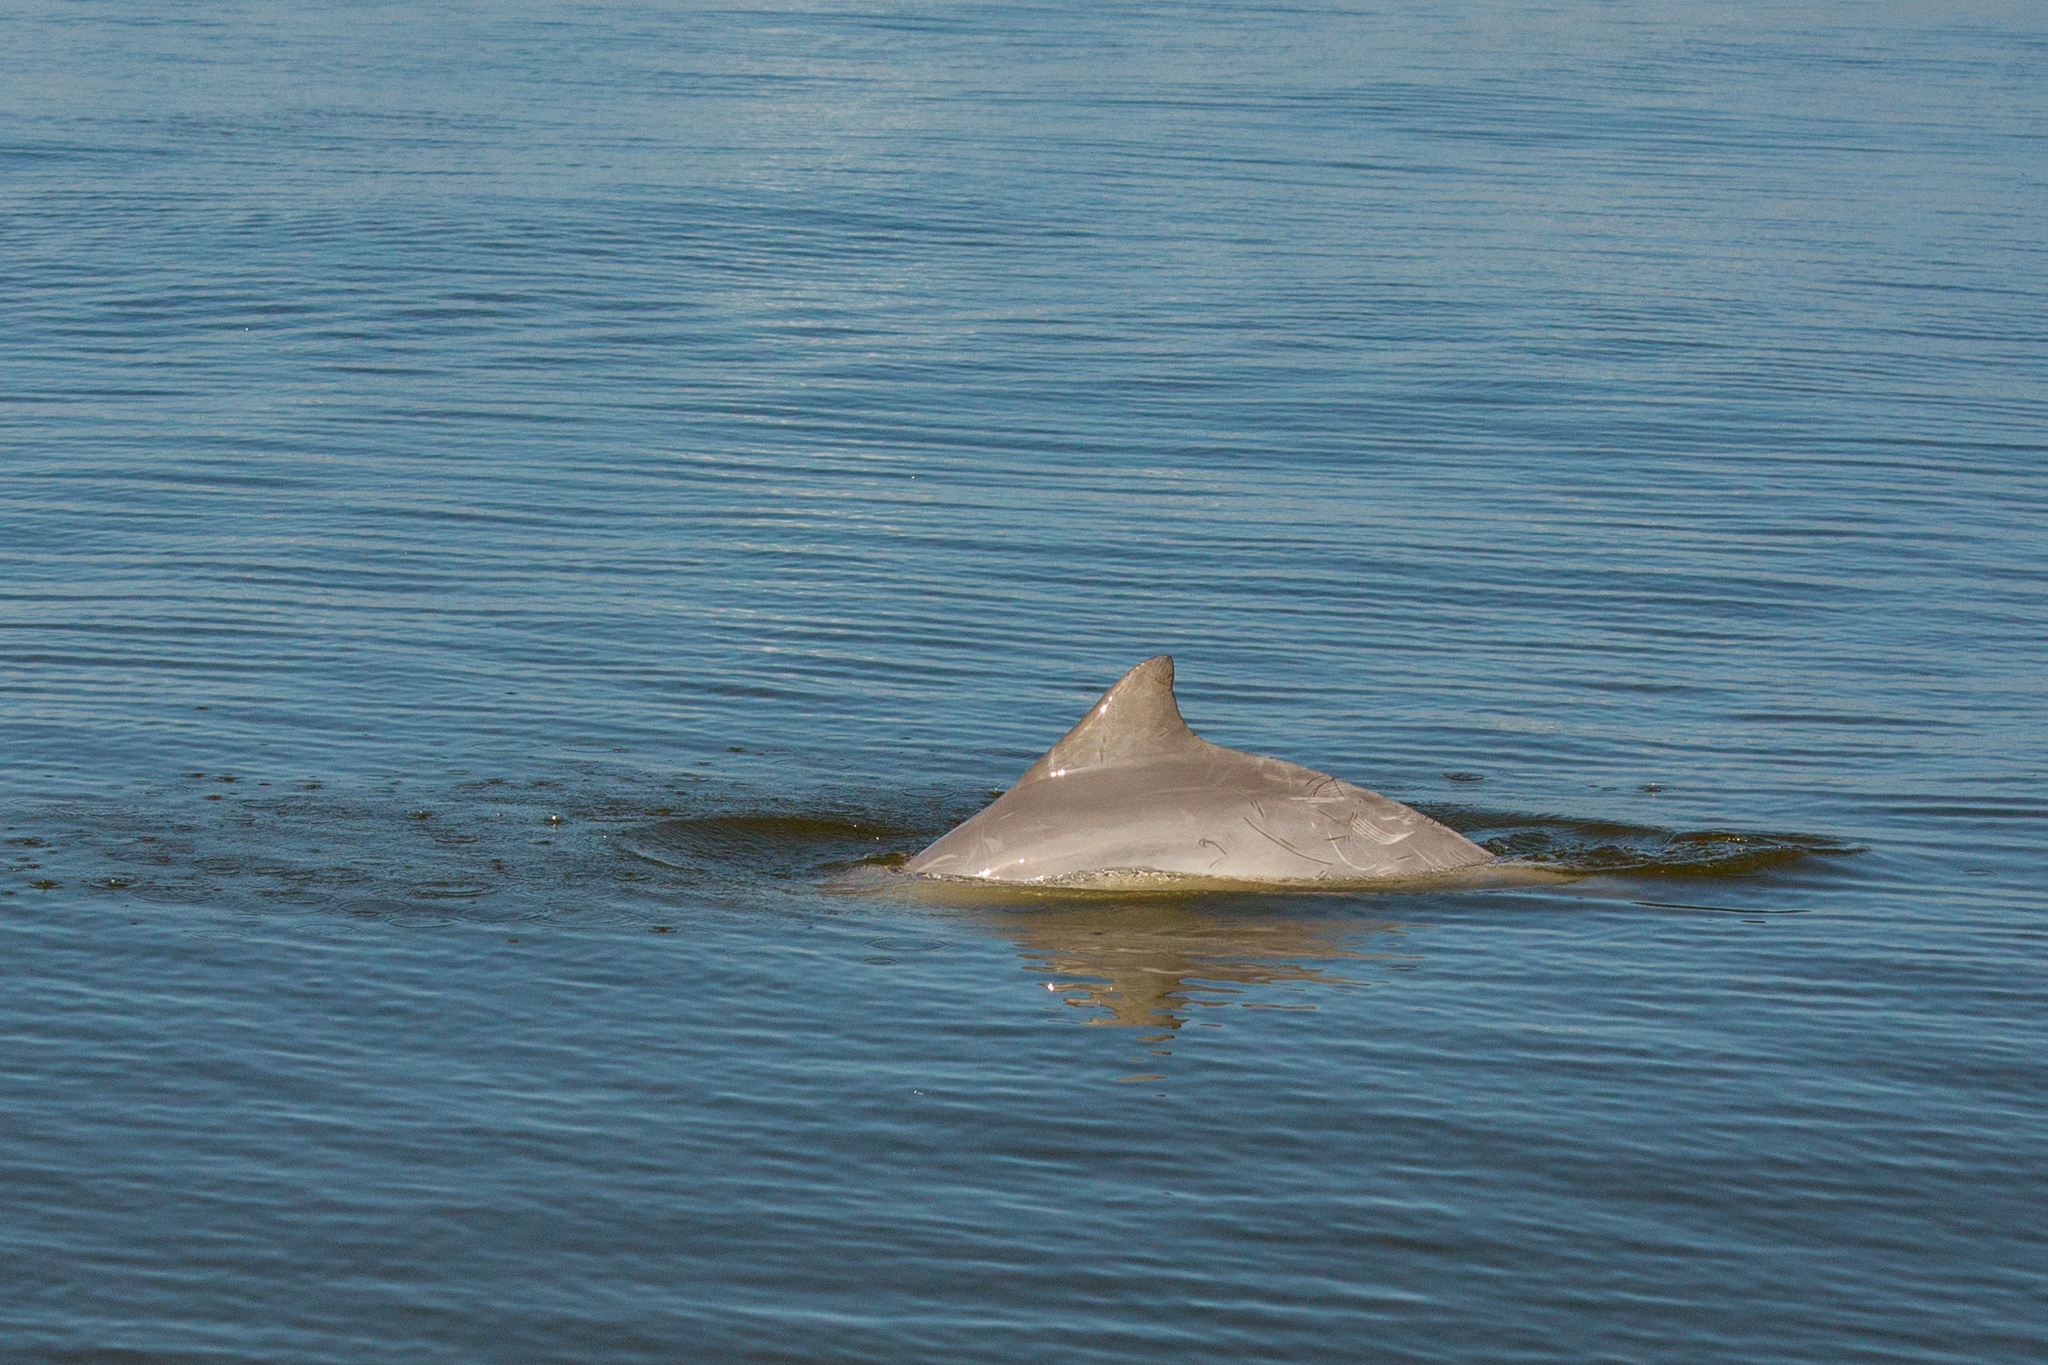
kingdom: Animalia
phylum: Chordata
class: Mammalia
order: Cetacea
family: Delphinidae
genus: Sotalia
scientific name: Sotalia guianensis
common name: Guiana dolphin
